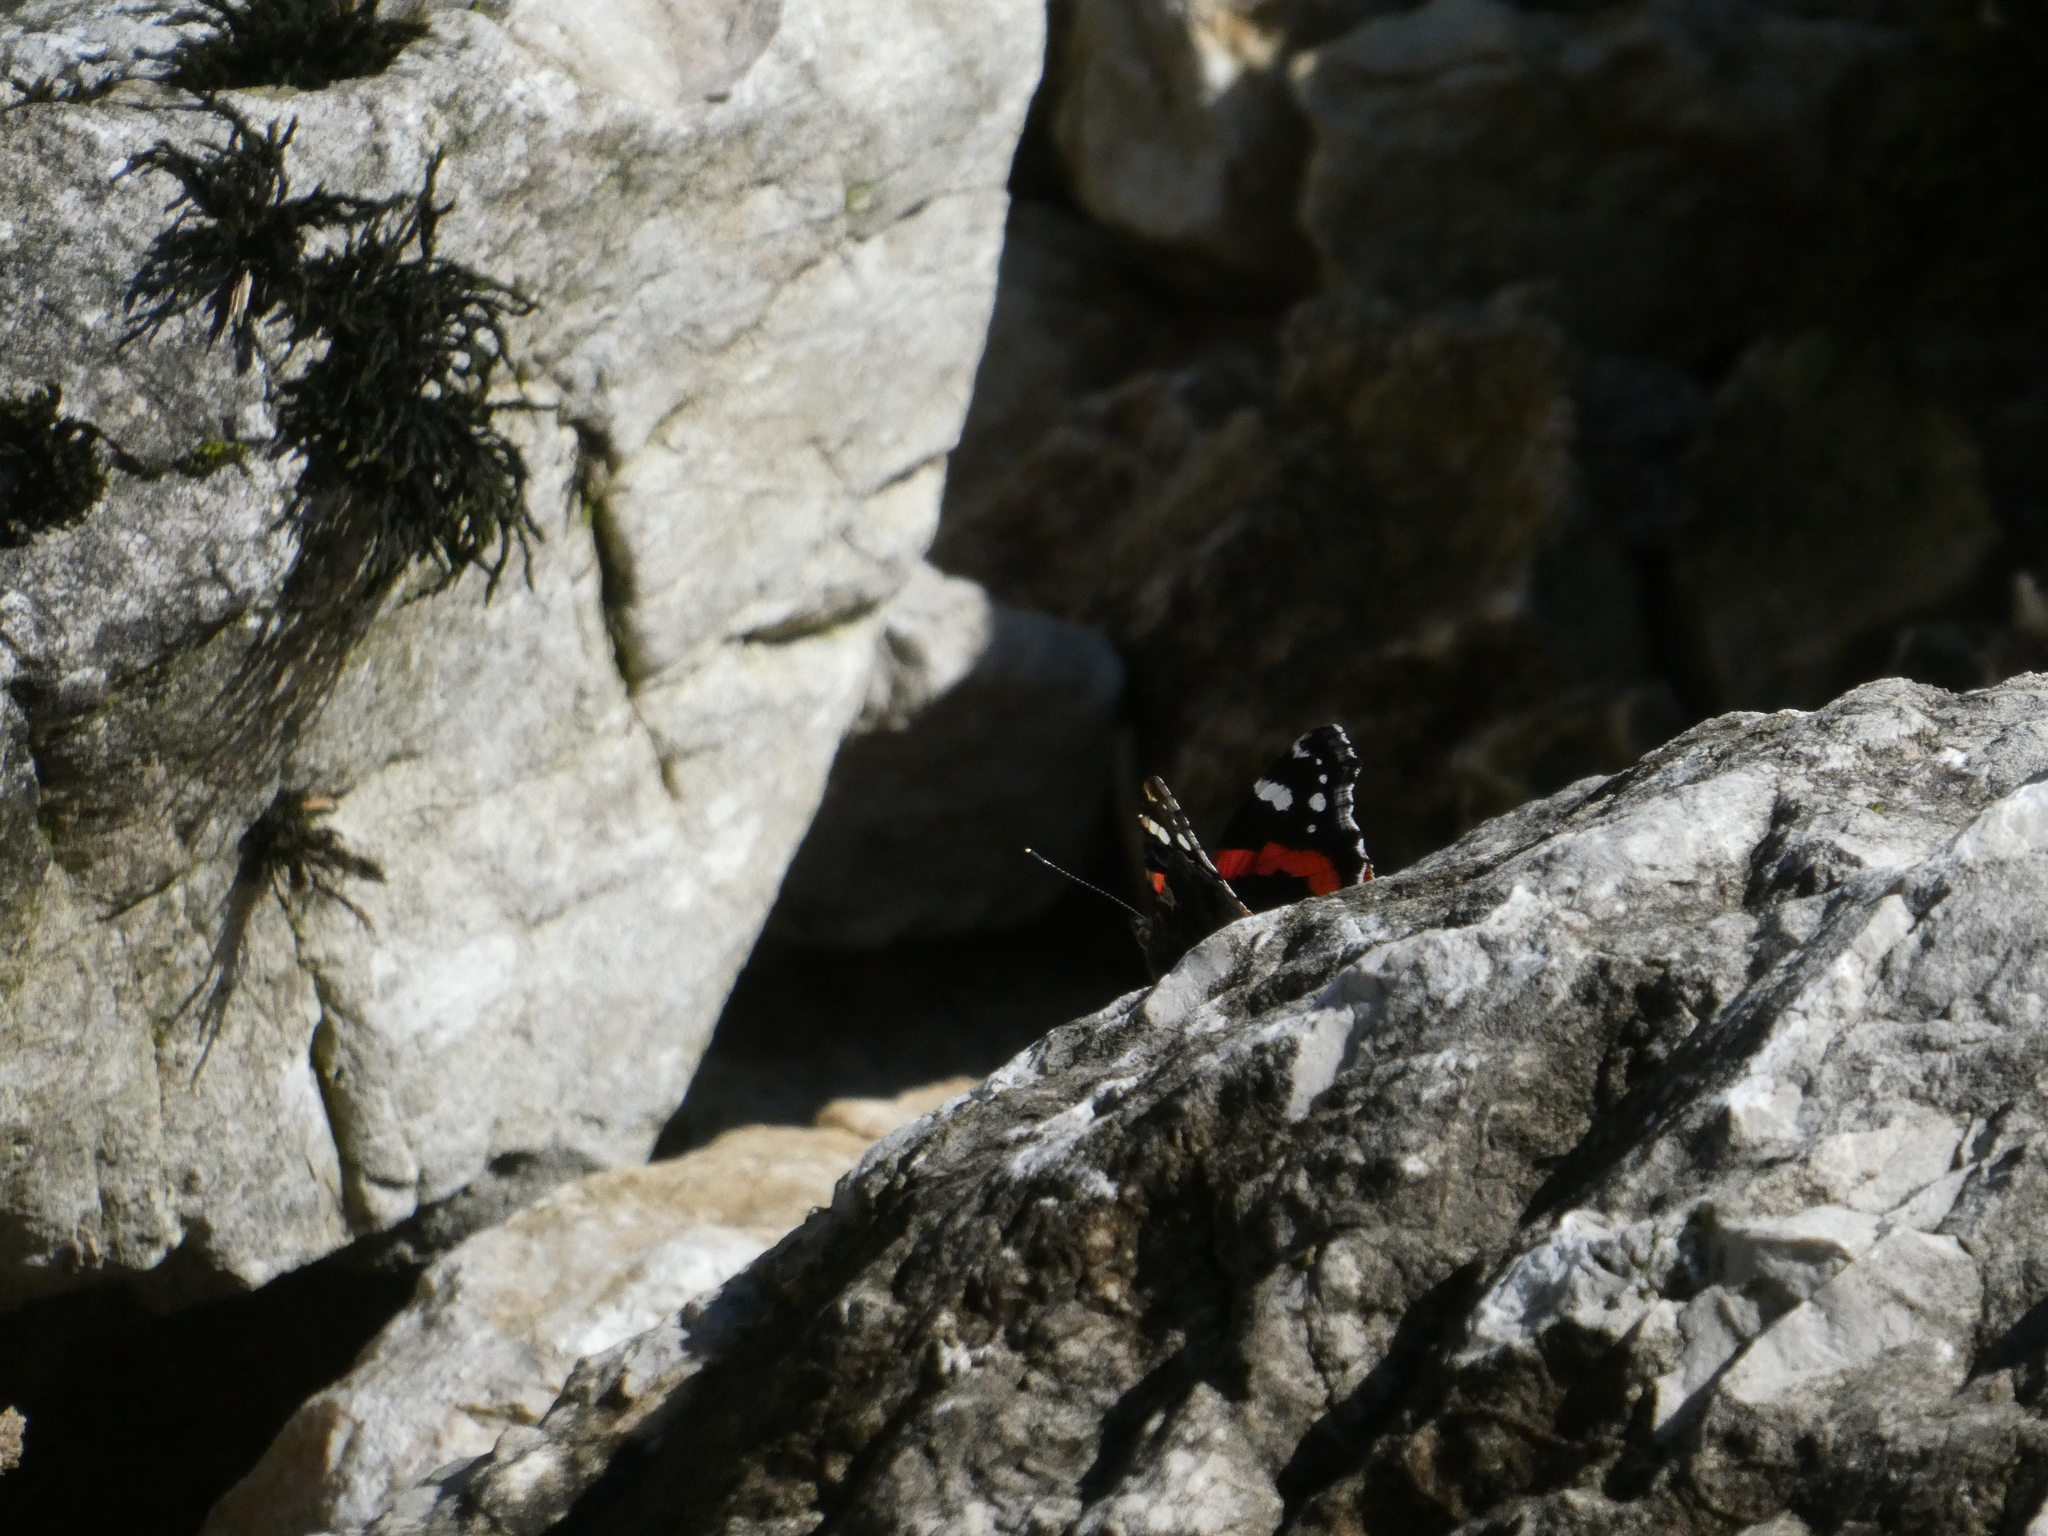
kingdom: Animalia
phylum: Arthropoda
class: Insecta
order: Lepidoptera
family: Nymphalidae
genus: Vanessa
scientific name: Vanessa atalanta
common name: Red admiral
